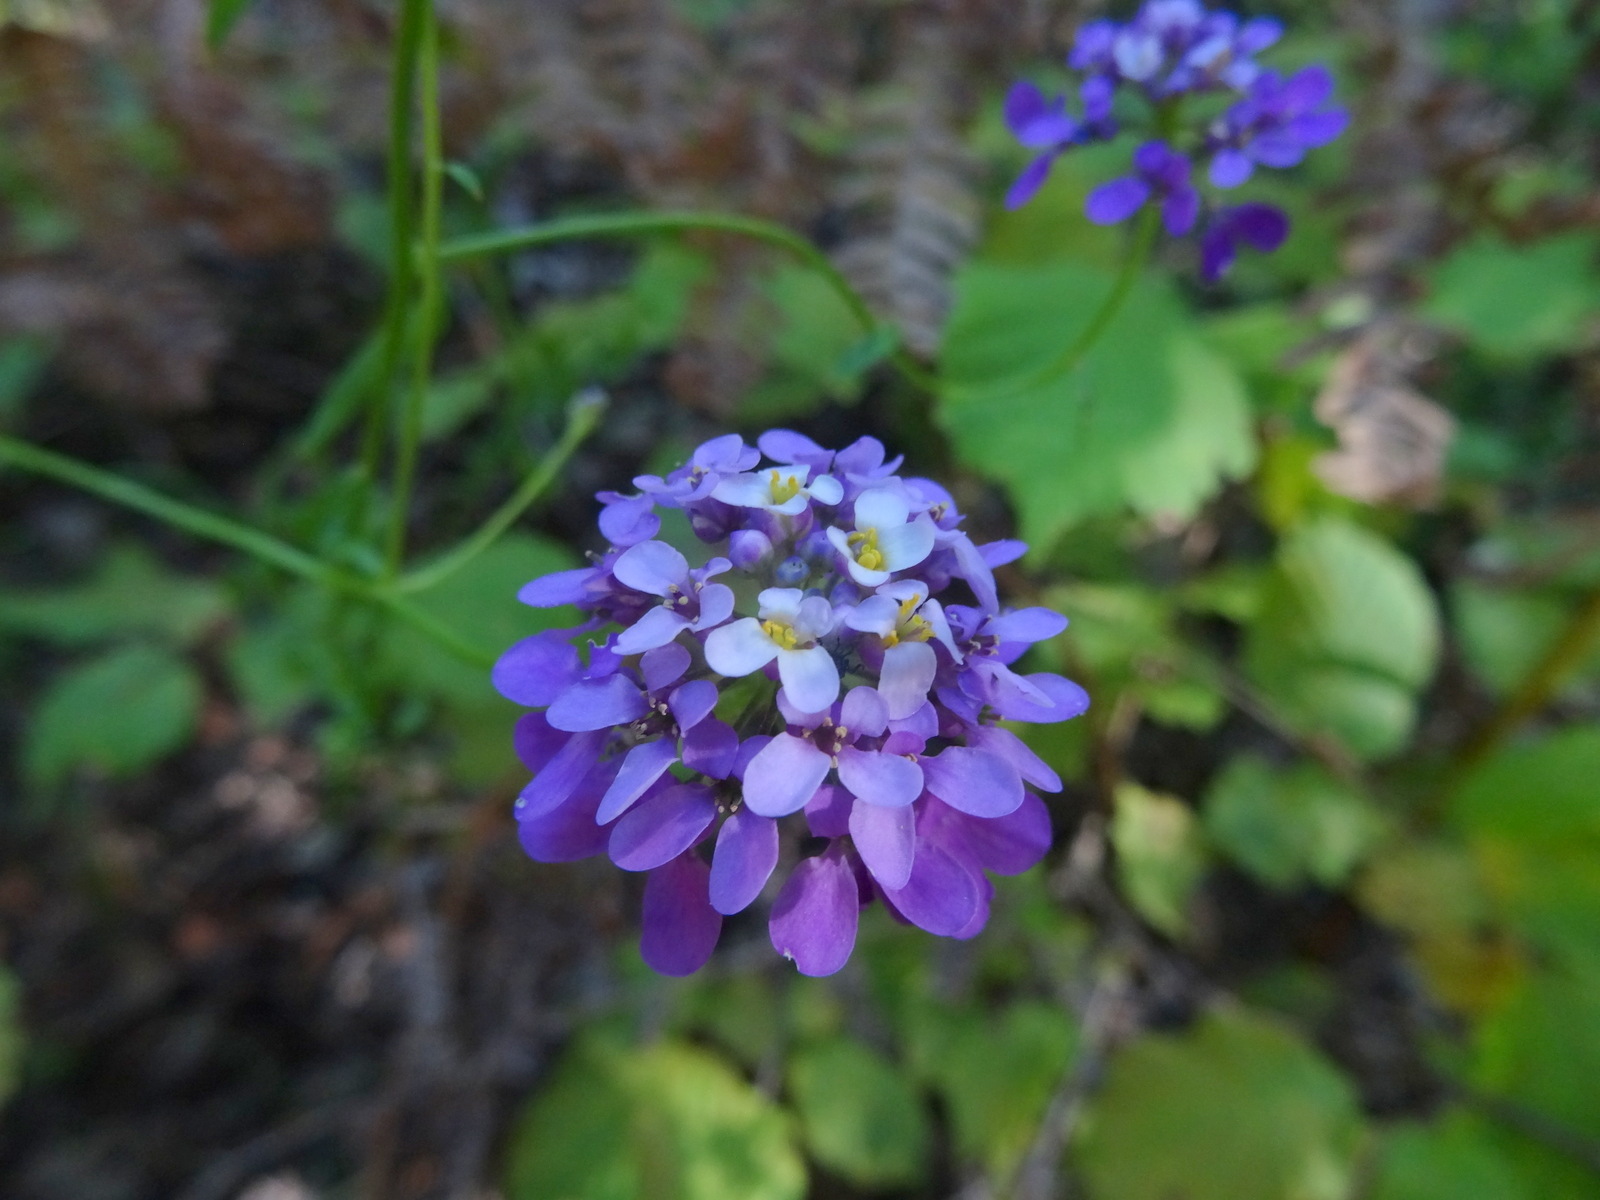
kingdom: Plantae
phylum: Tracheophyta
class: Magnoliopsida
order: Brassicales
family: Brassicaceae
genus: Iberis
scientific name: Iberis linifolia
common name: Candytuft
